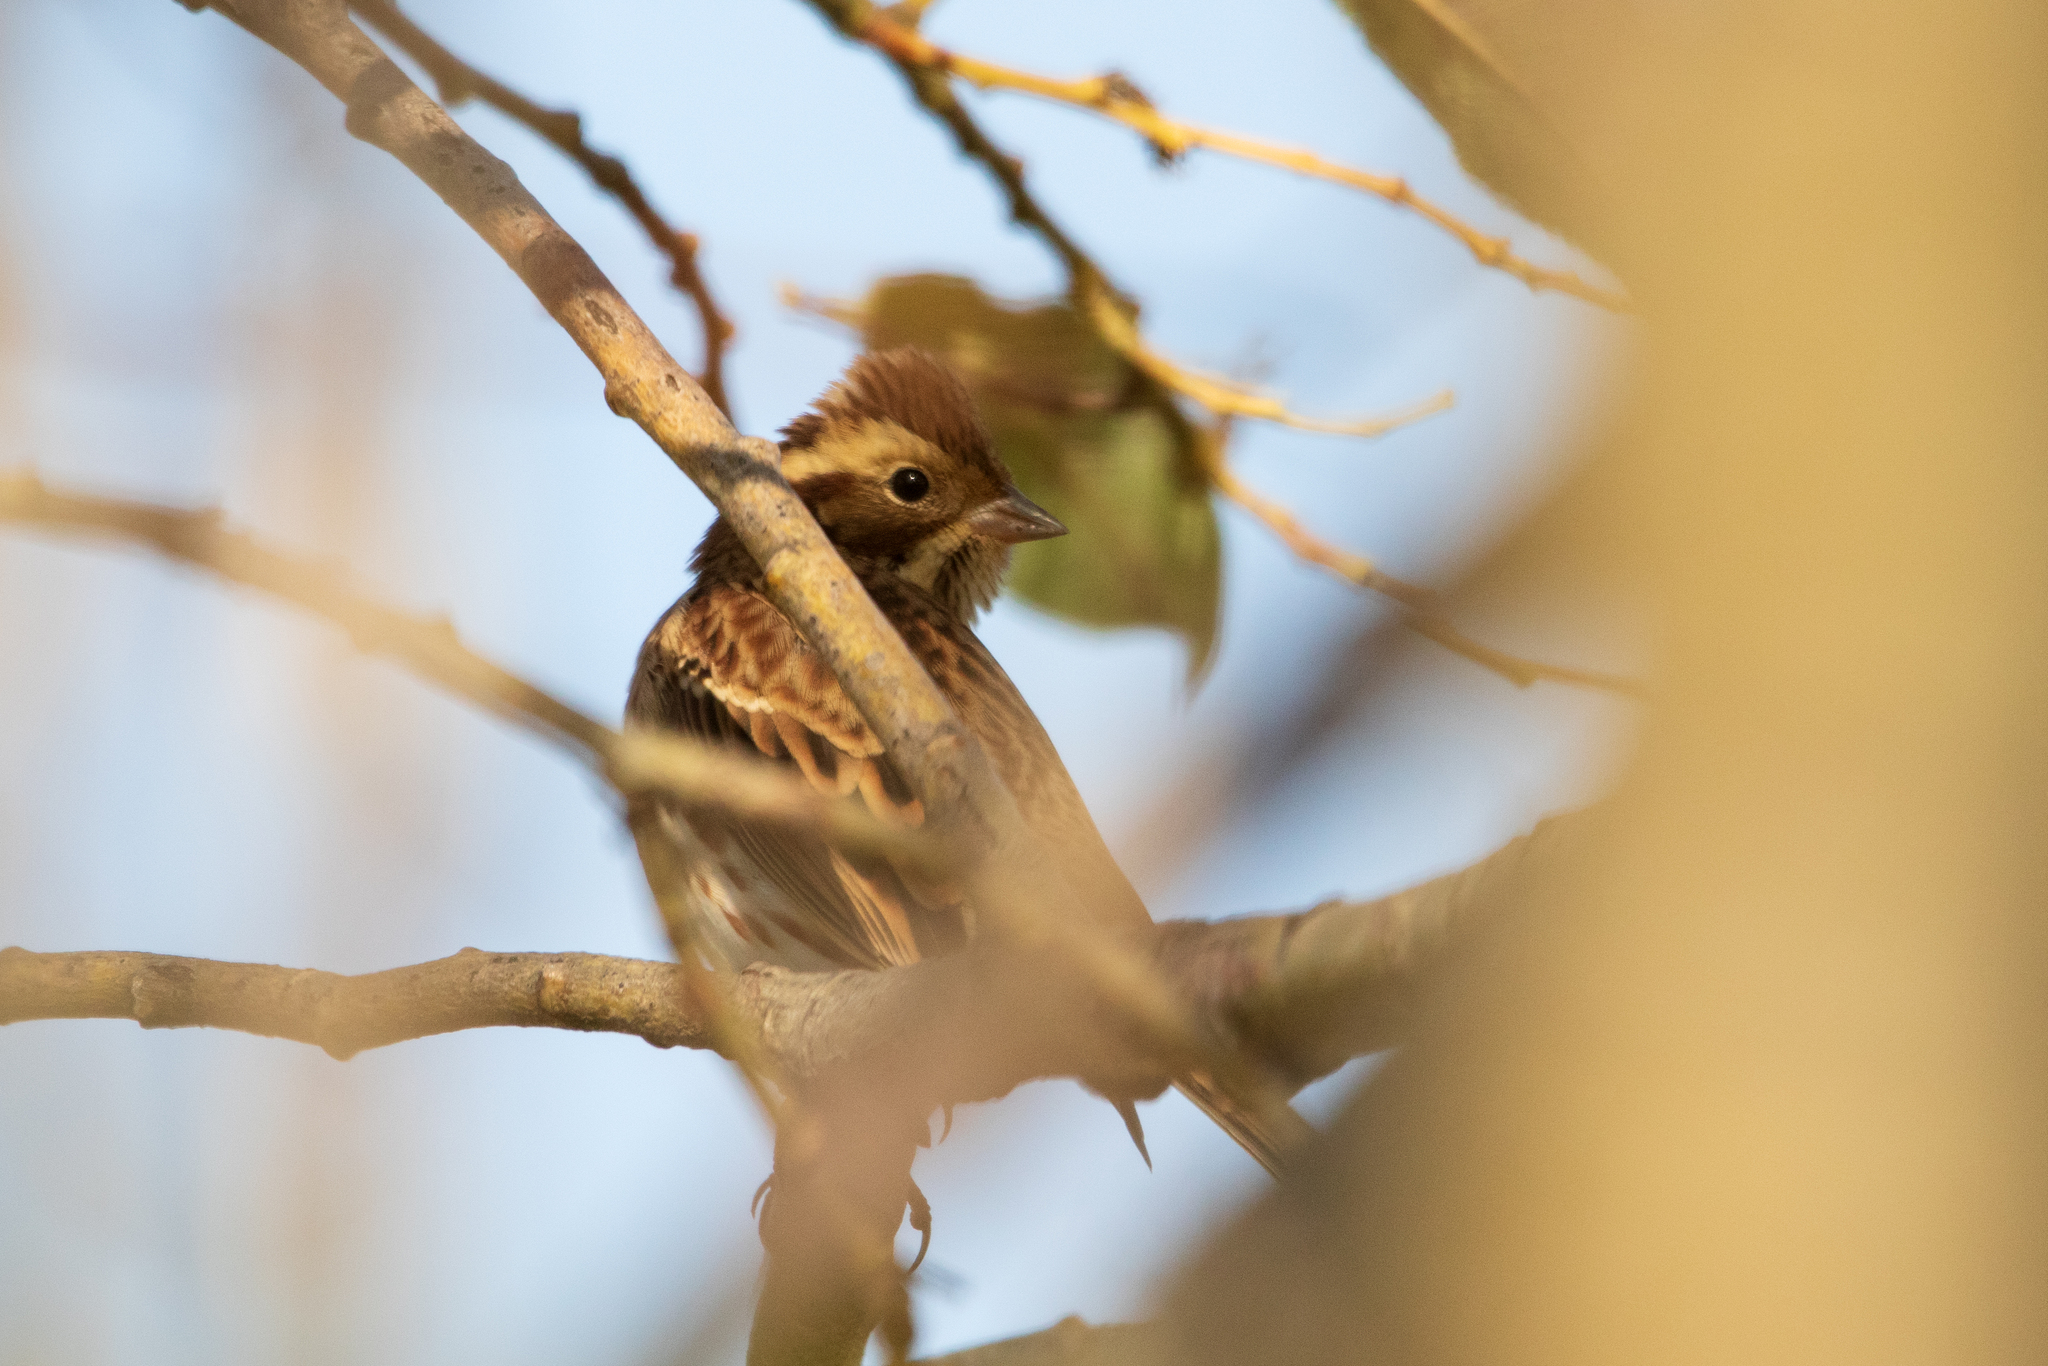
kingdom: Animalia
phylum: Chordata
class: Aves
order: Passeriformes
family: Emberizidae
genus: Emberiza
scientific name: Emberiza rustica
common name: Rustic bunting
